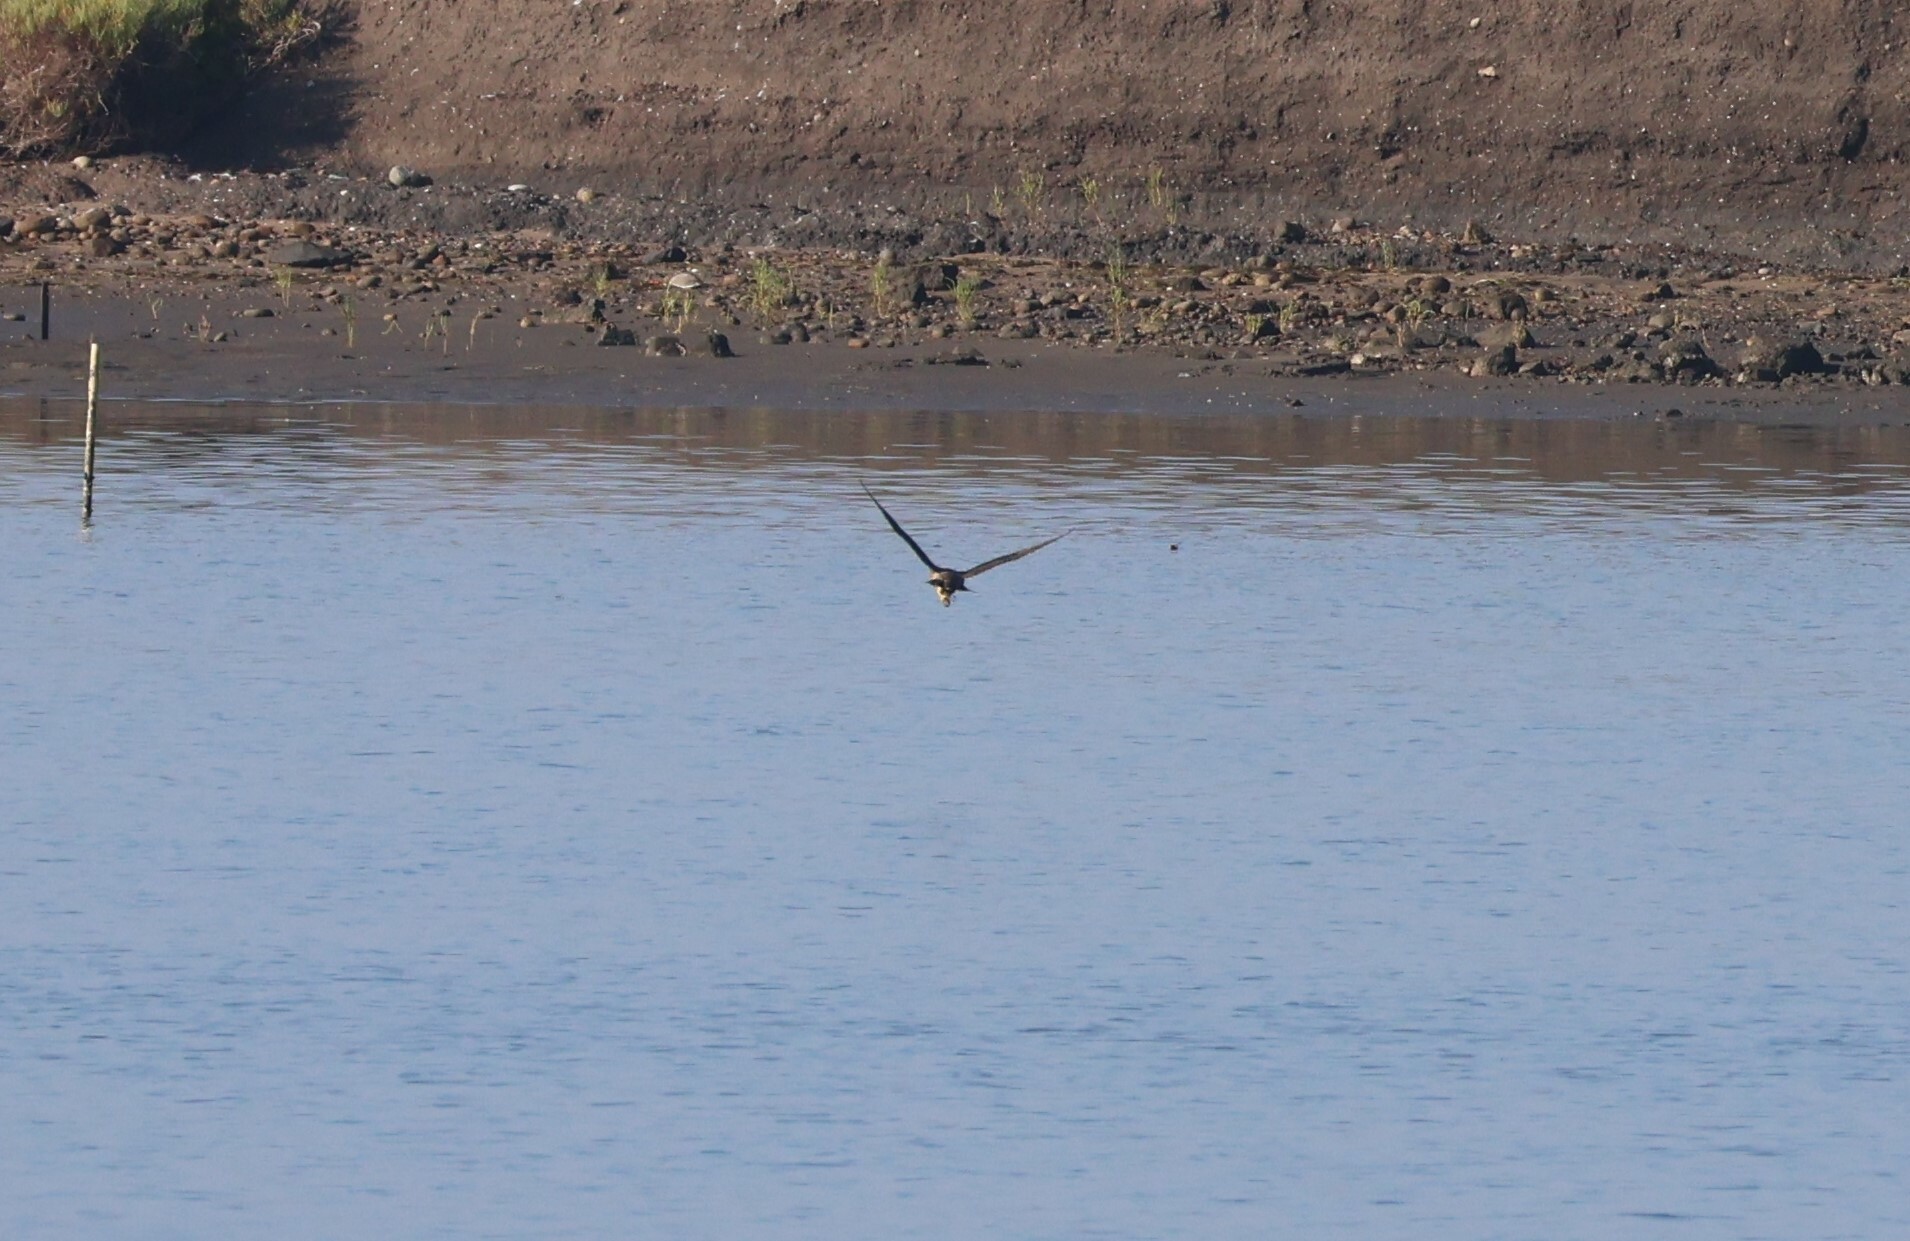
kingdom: Animalia
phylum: Chordata
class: Aves
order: Falconiformes
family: Falconidae
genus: Falco
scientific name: Falco peregrinus
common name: Peregrine falcon
